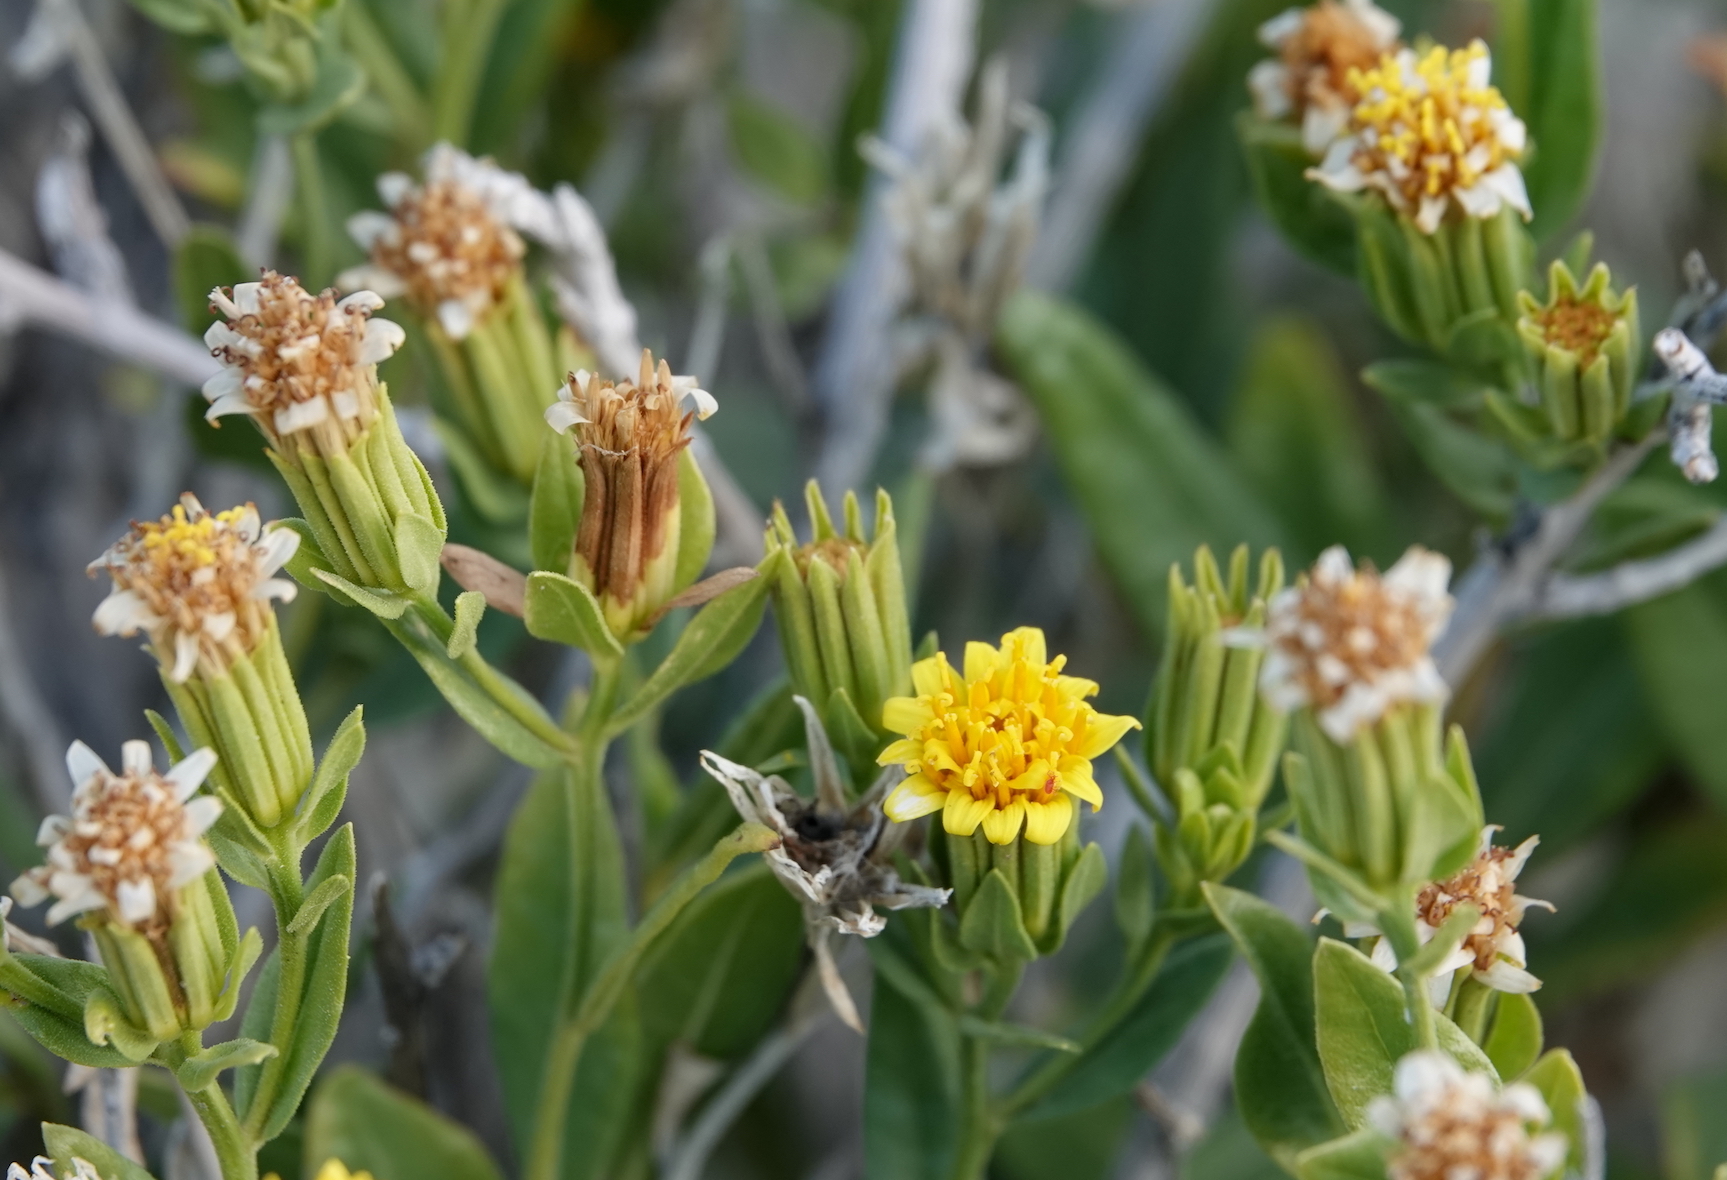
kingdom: Plantae
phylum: Tracheophyta
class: Magnoliopsida
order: Asterales
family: Asteraceae
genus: Trixis
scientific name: Trixis californica
